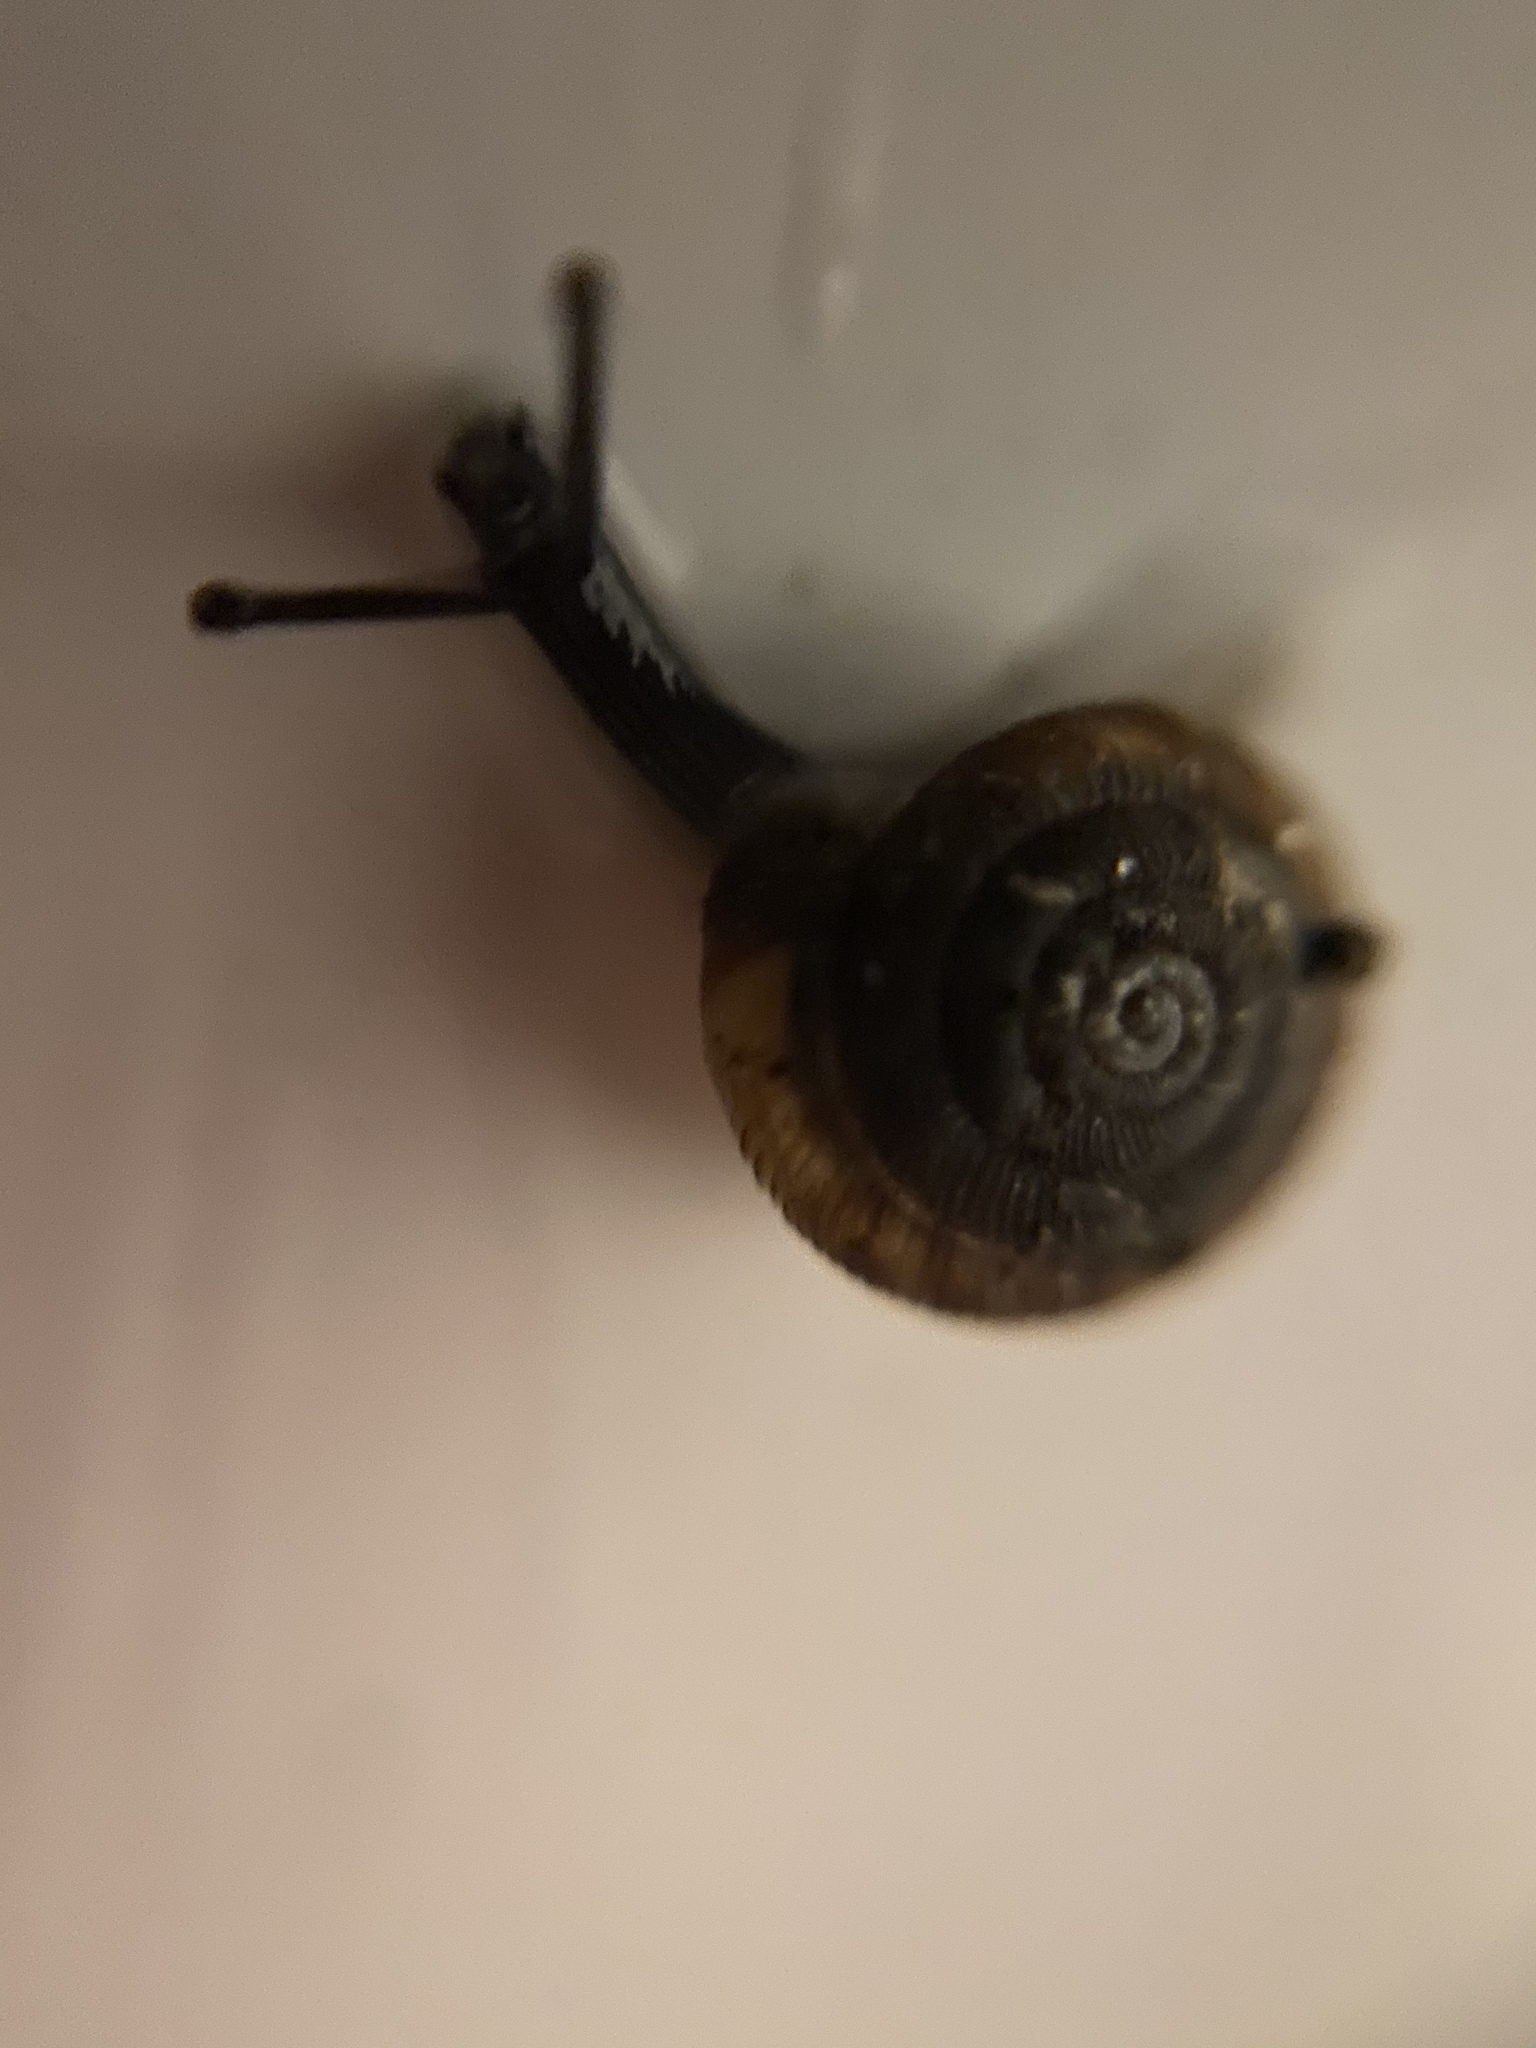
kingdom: Animalia
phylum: Mollusca
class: Gastropoda
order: Stylommatophora
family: Discidae
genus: Discus
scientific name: Discus rotundatus
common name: Rounded snail
